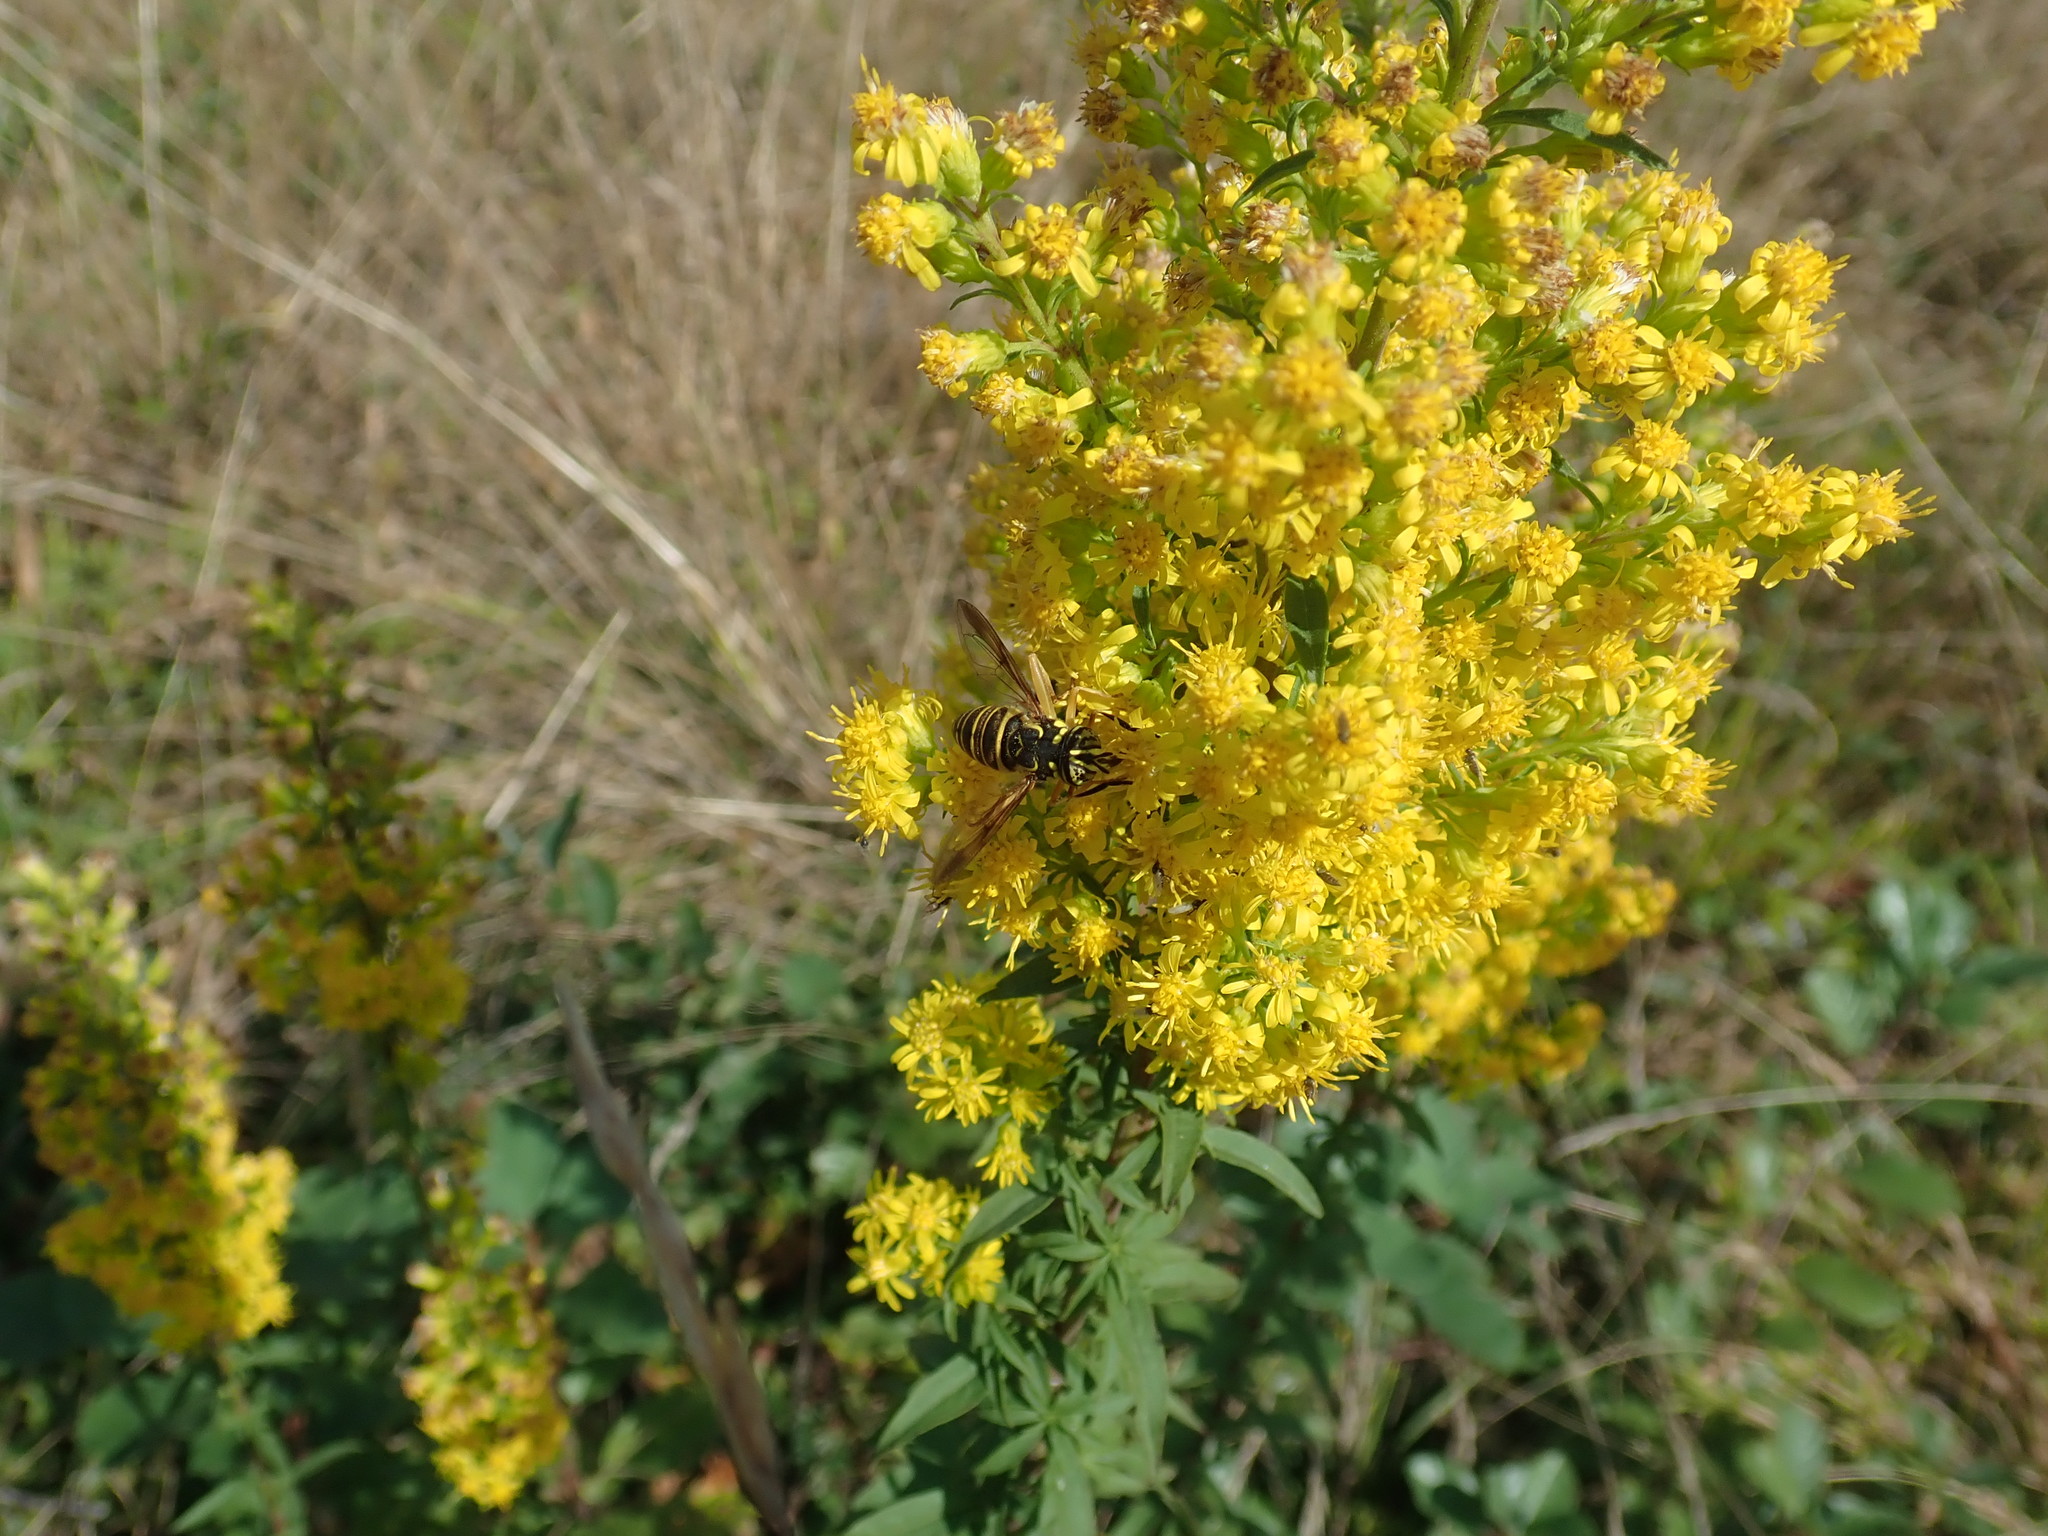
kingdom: Animalia
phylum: Arthropoda
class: Insecta
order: Diptera
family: Syrphidae
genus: Spilomyia
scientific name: Spilomyia longicornis
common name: Eastern hornet fly
